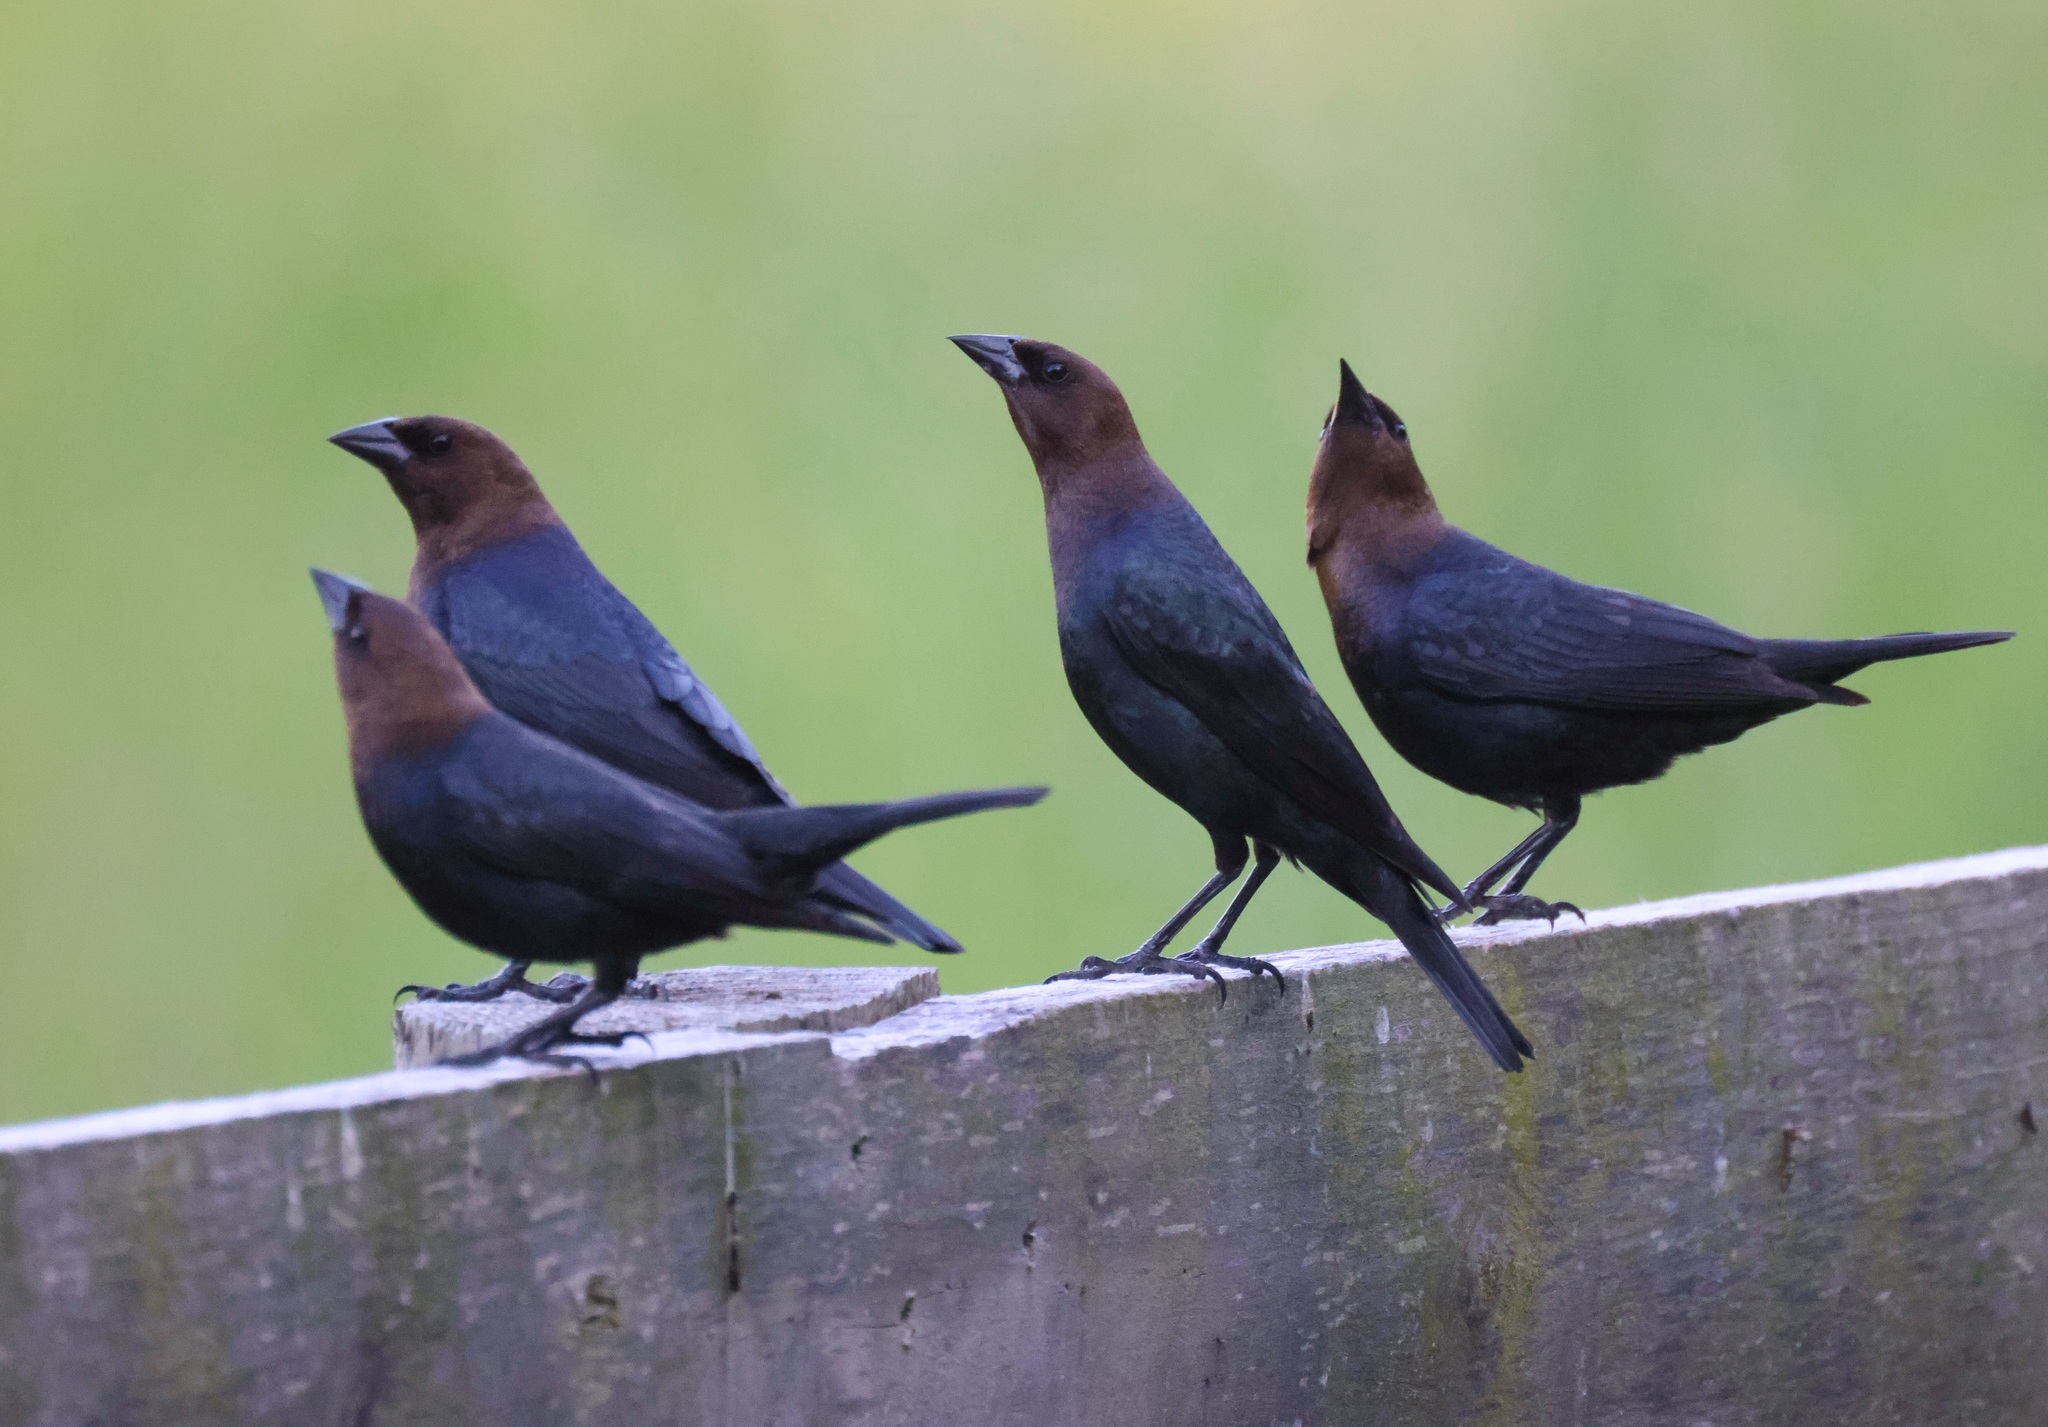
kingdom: Animalia
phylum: Chordata
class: Aves
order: Passeriformes
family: Icteridae
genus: Molothrus
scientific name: Molothrus ater
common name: Brown-headed cowbird
